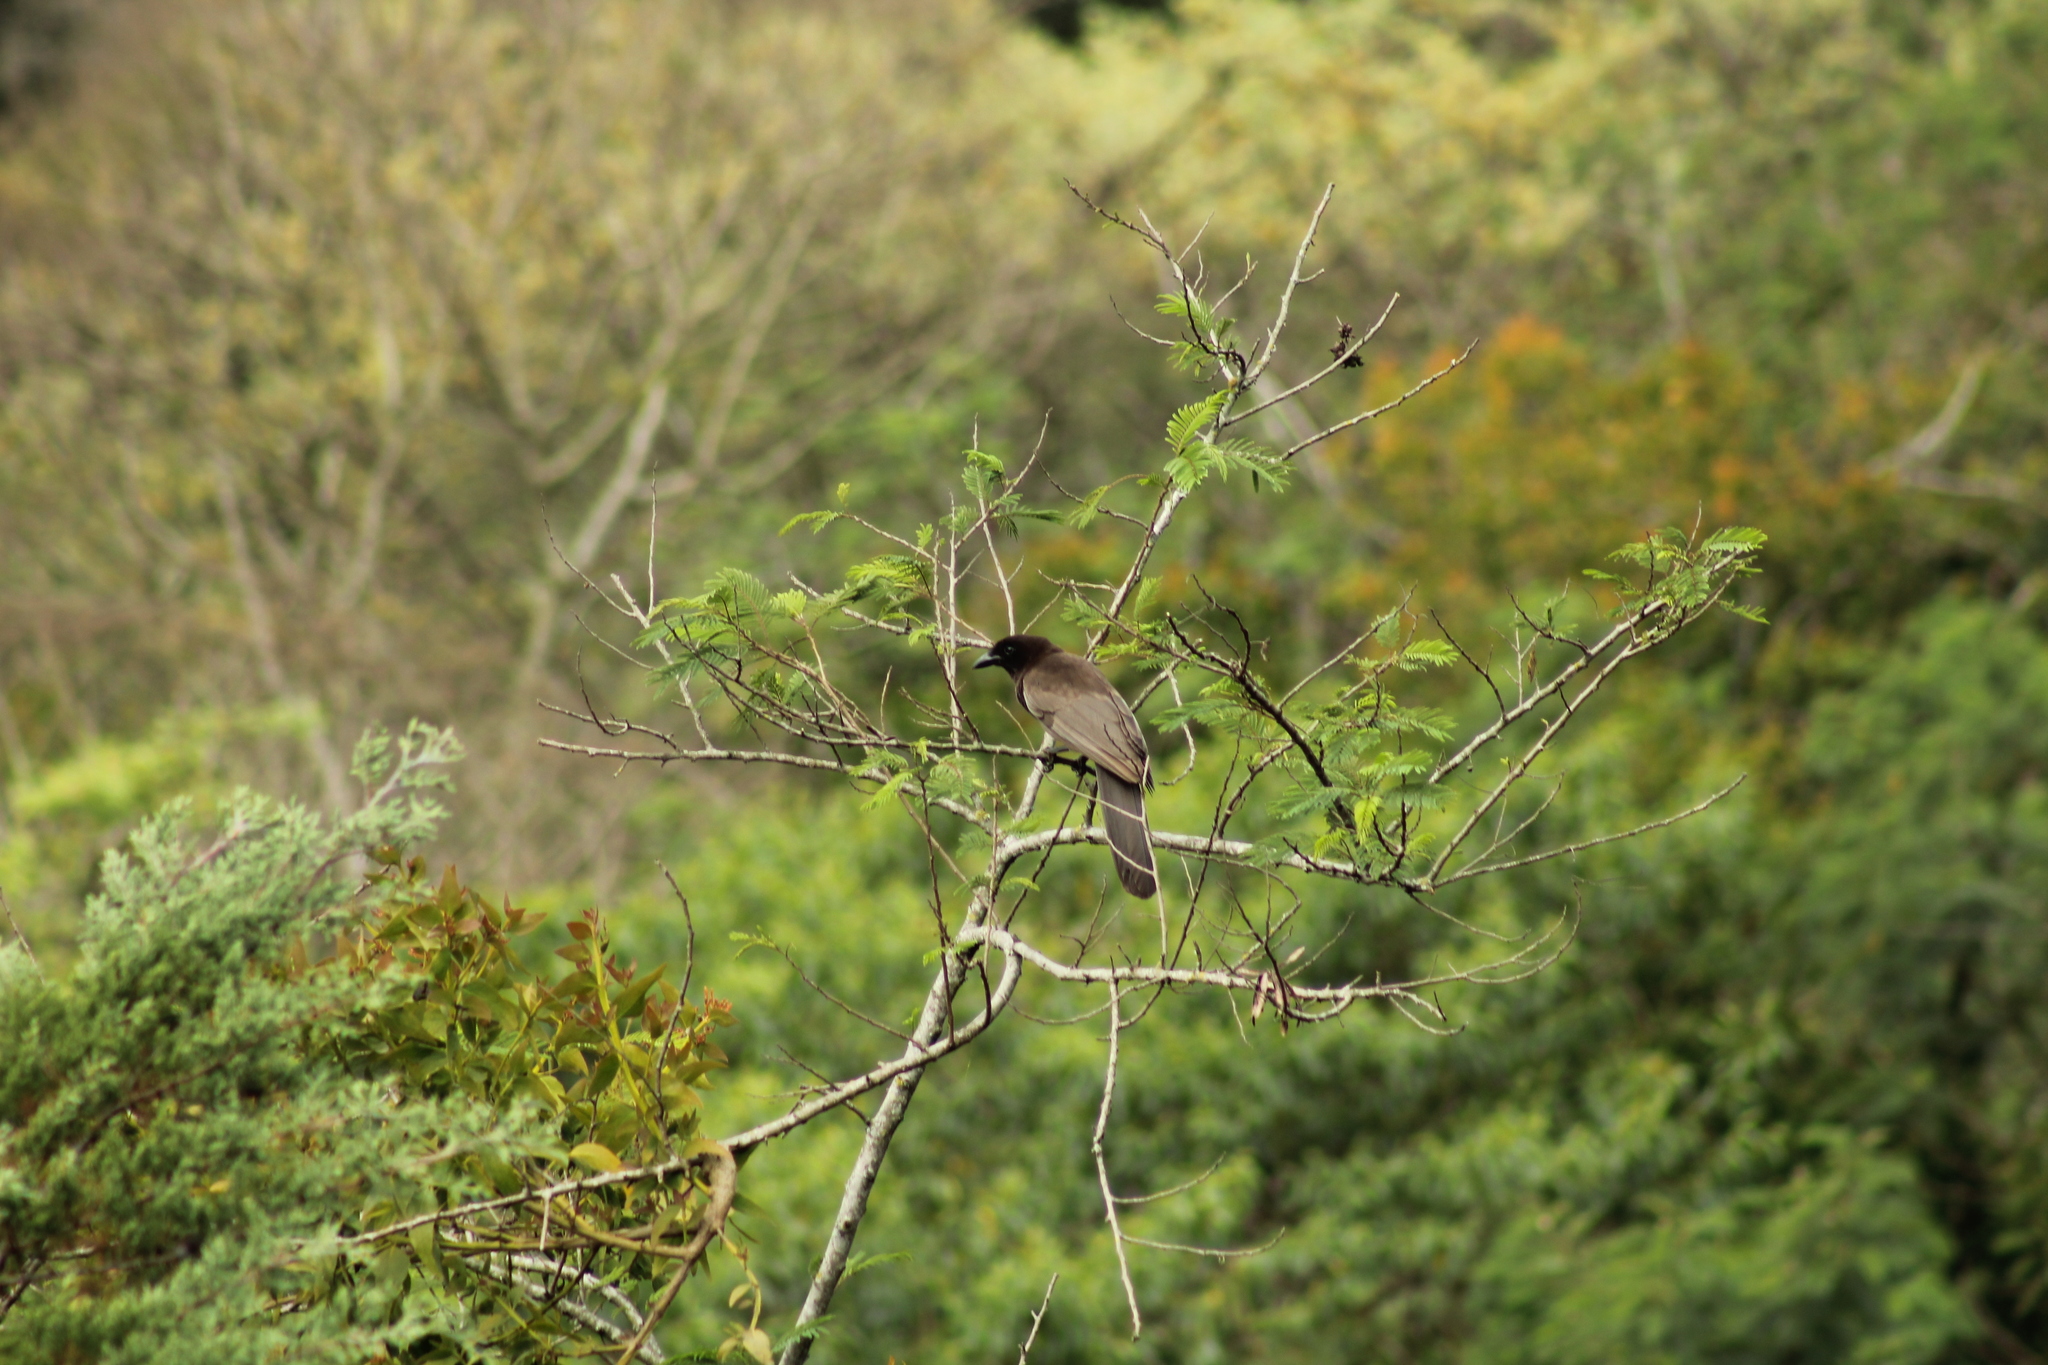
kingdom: Animalia
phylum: Chordata
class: Aves
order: Passeriformes
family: Corvidae
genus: Psilorhinus
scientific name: Psilorhinus morio
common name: Brown jay
